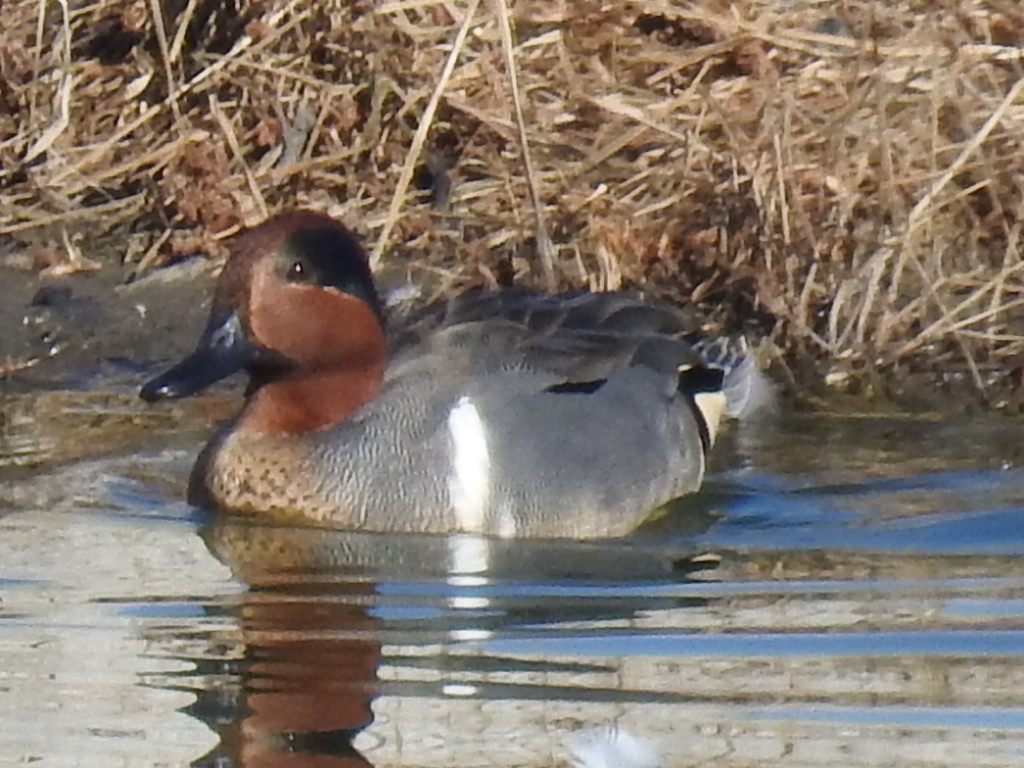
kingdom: Animalia
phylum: Chordata
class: Aves
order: Anseriformes
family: Anatidae
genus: Anas
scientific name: Anas crecca
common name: Eurasian teal
